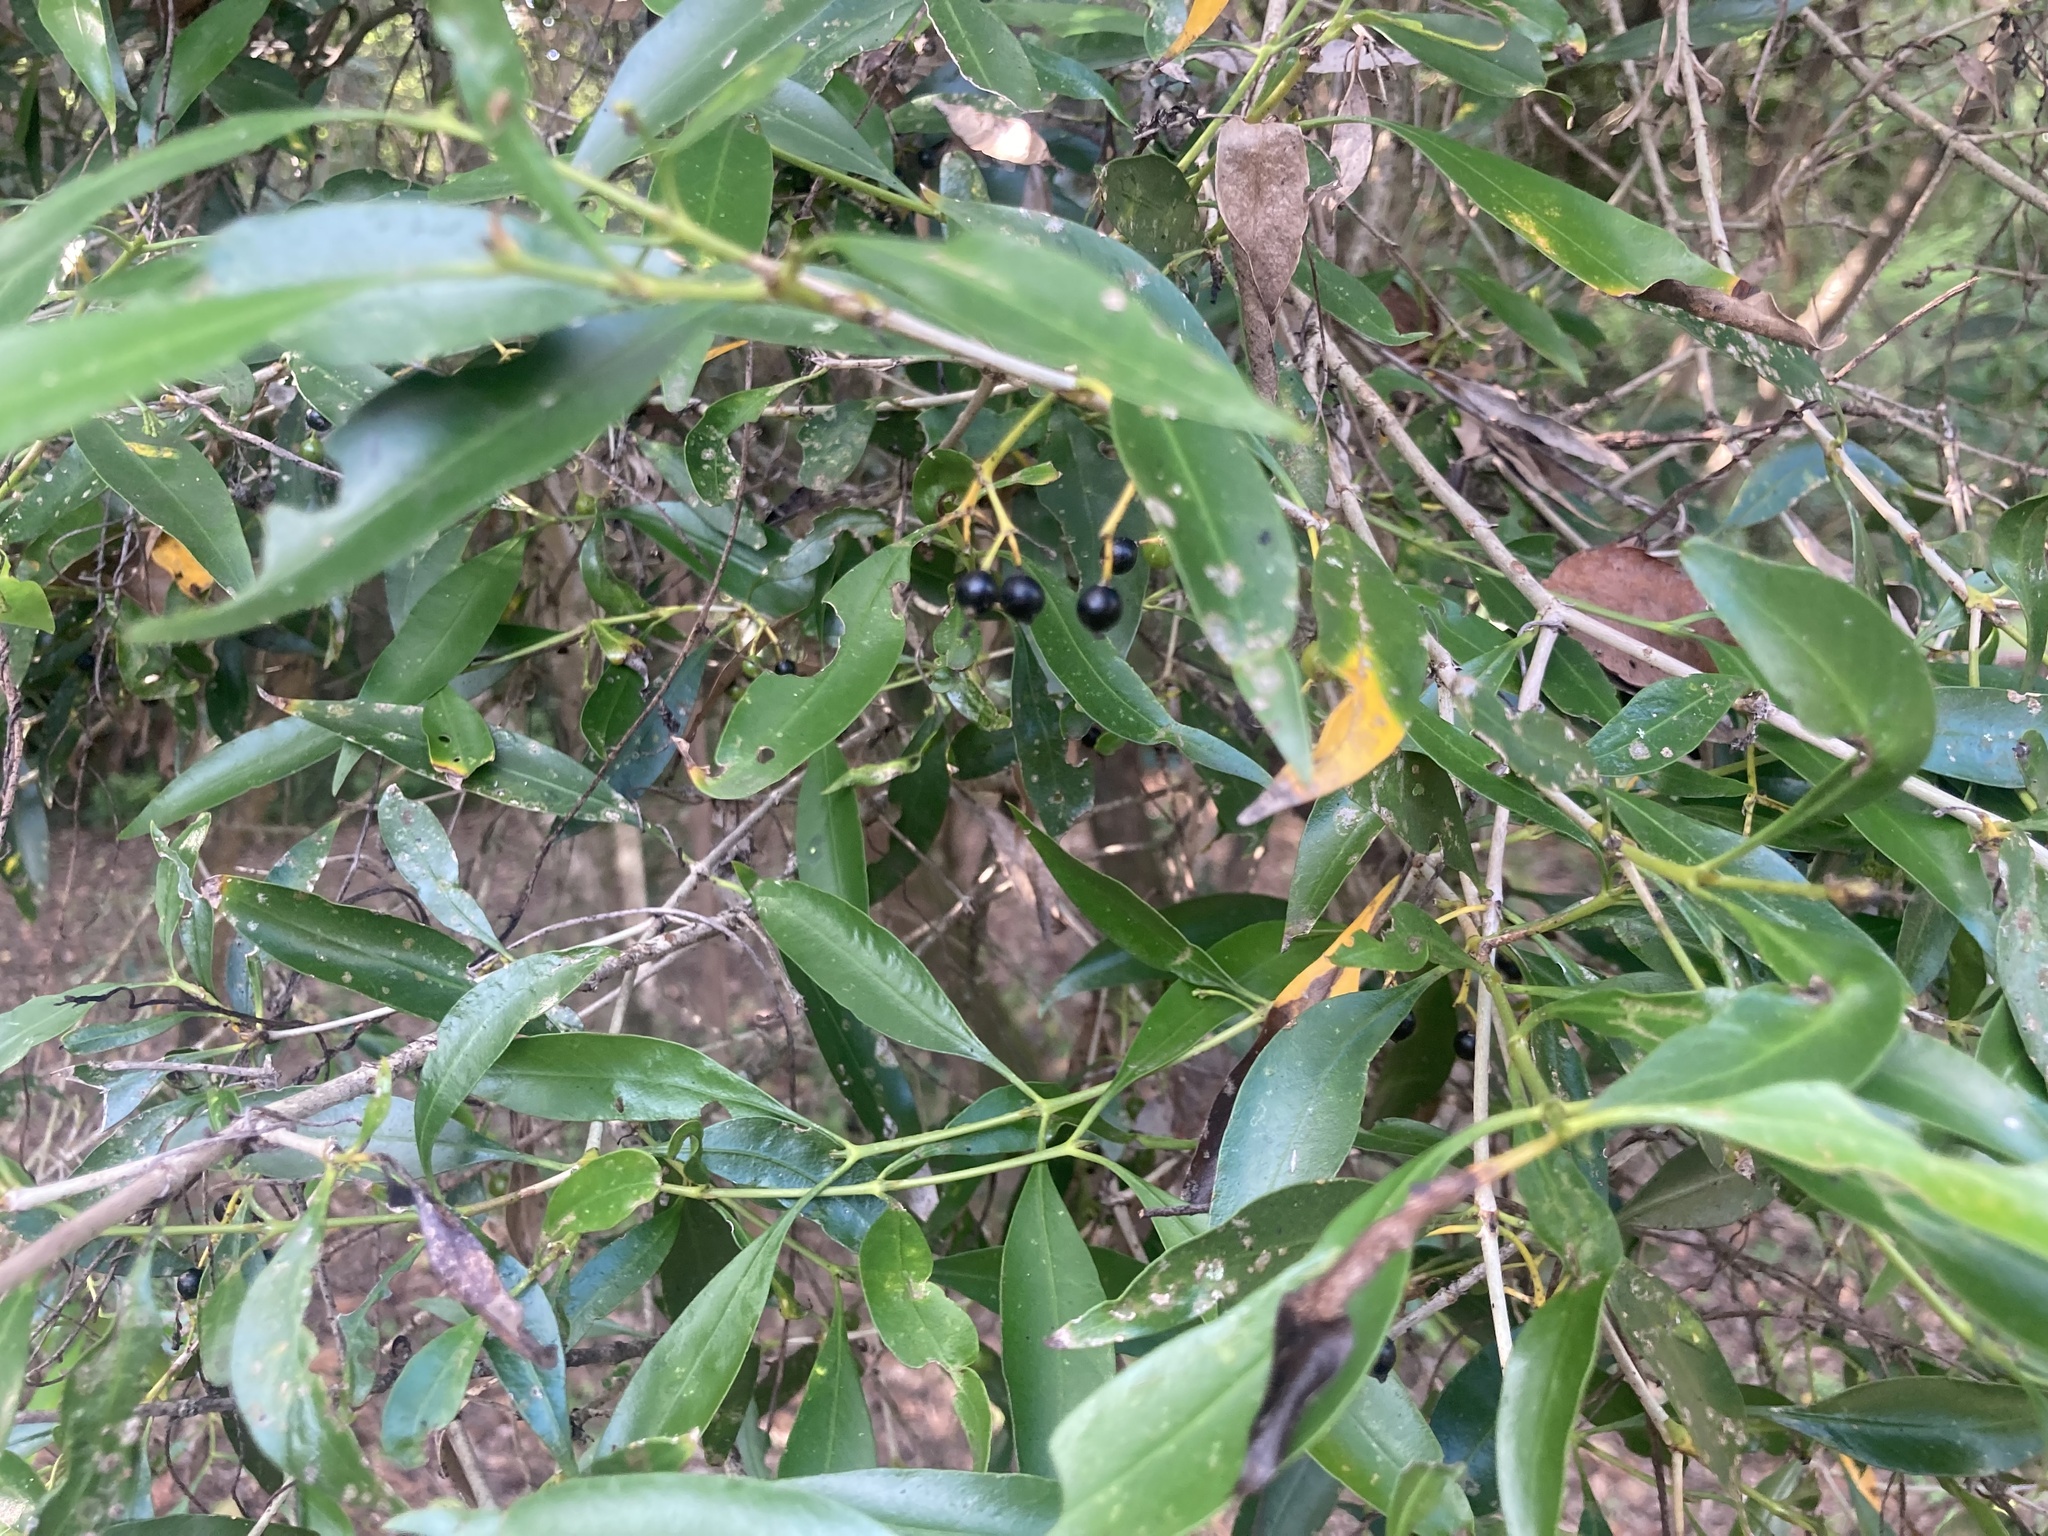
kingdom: Plantae
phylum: Tracheophyta
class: Magnoliopsida
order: Gentianales
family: Rubiaceae
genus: Coptosperma
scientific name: Coptosperma supra-axillare
